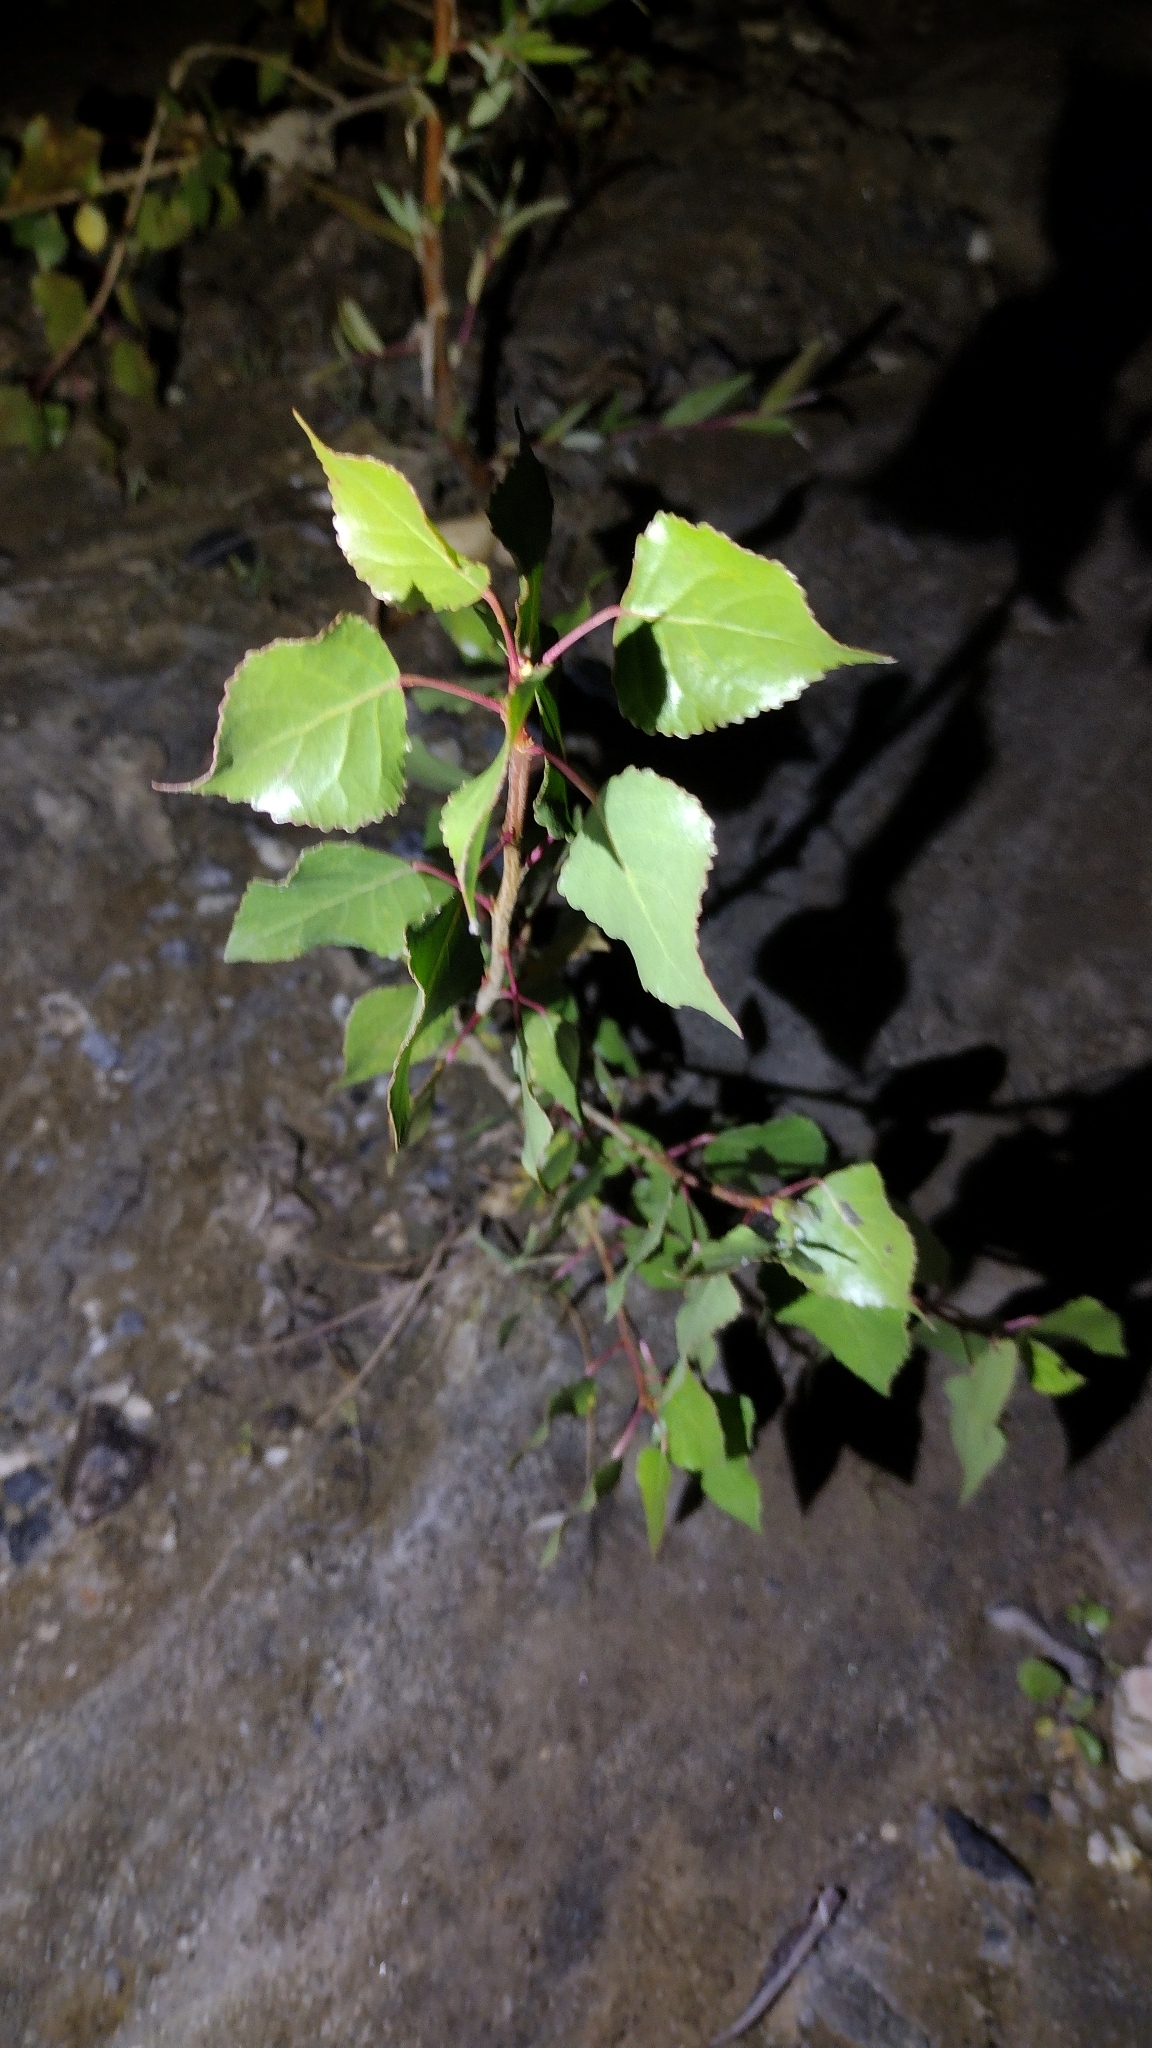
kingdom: Plantae
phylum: Tracheophyta
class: Magnoliopsida
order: Malpighiales
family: Salicaceae
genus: Populus
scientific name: Populus fremontii
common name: Fremont's cottonwood
